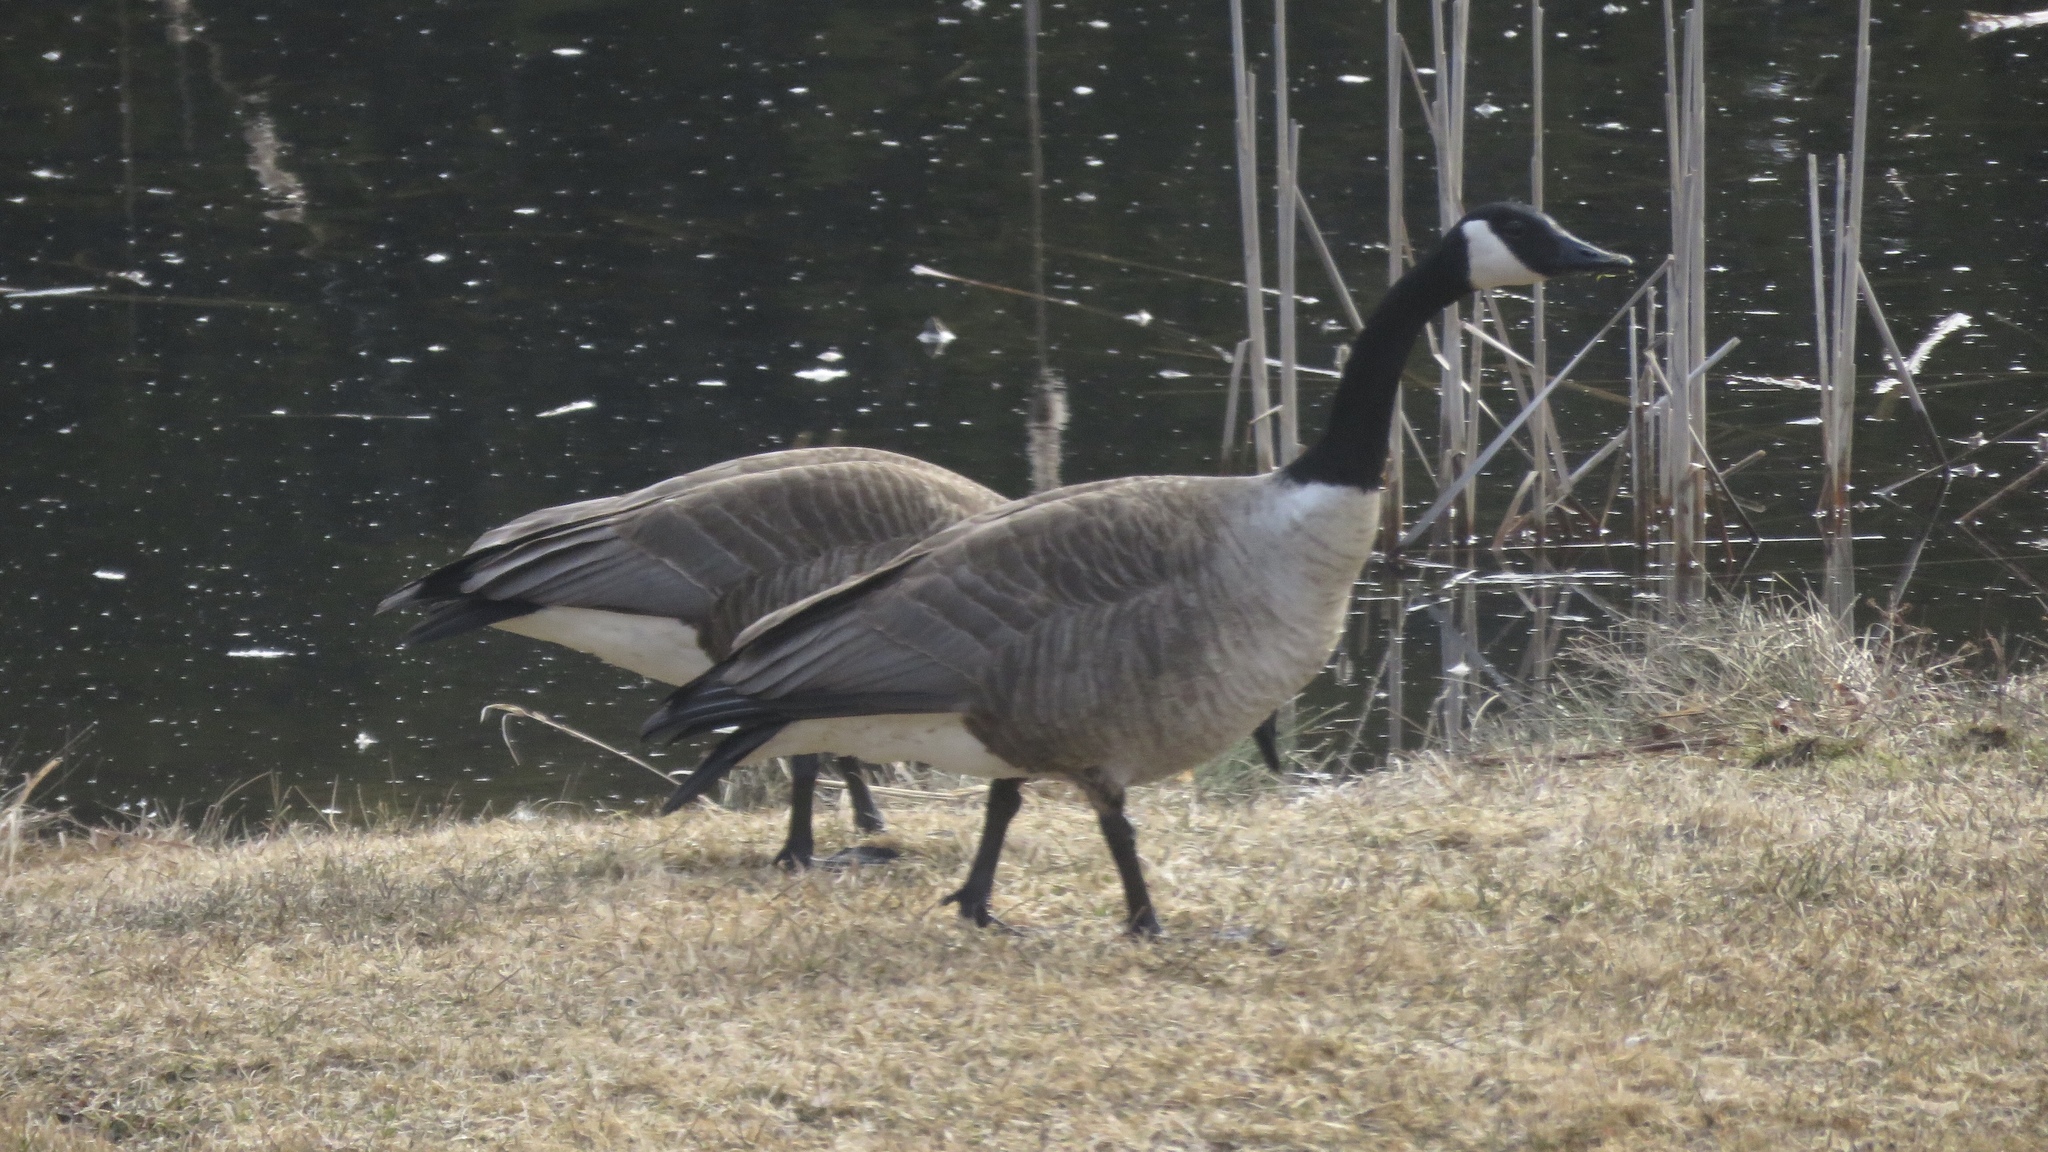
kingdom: Animalia
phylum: Chordata
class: Aves
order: Anseriformes
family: Anatidae
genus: Branta
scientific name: Branta canadensis
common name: Canada goose
